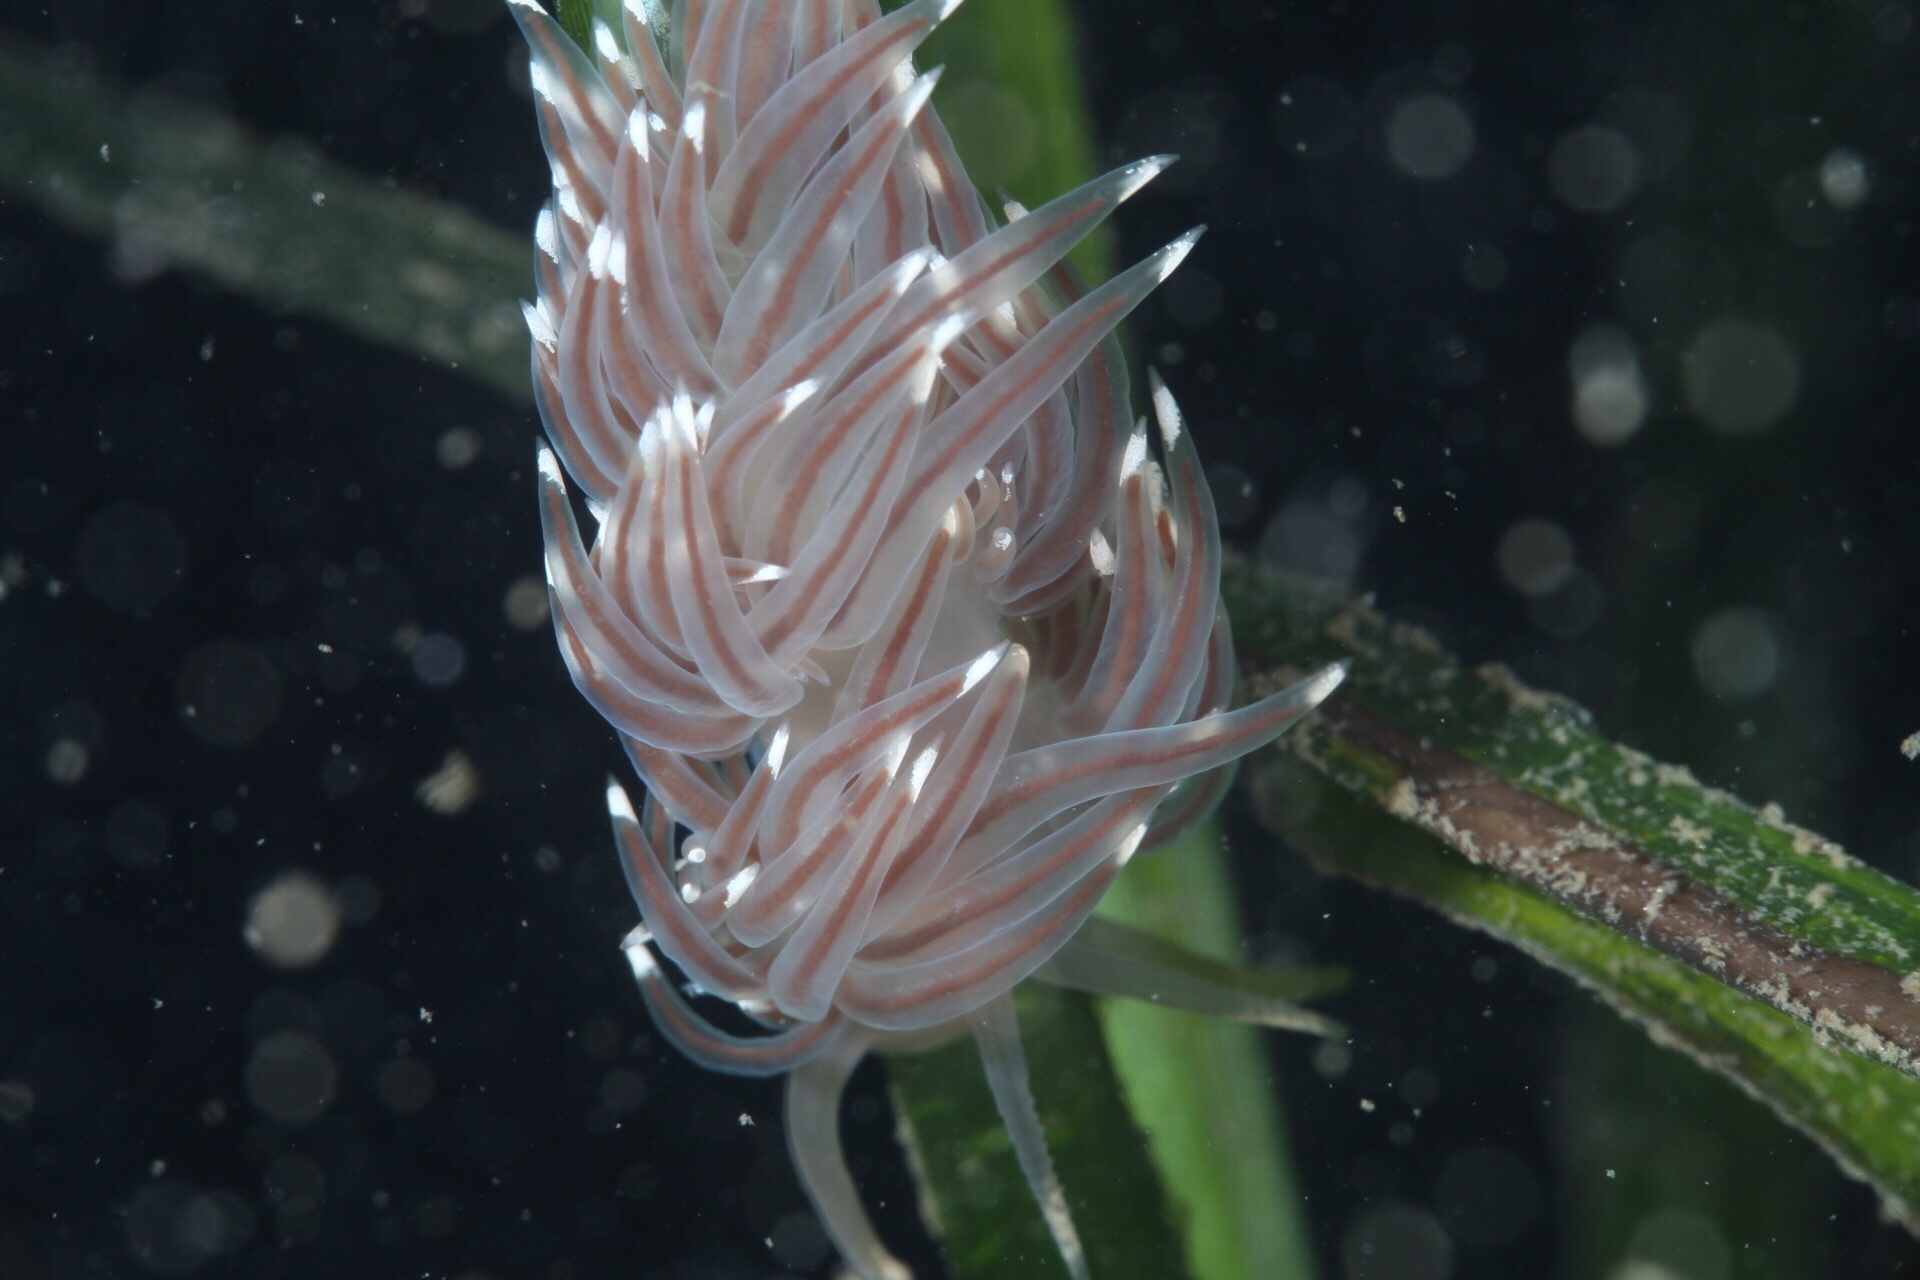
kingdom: Animalia
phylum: Mollusca
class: Gastropoda
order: Nudibranchia
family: Facelinidae
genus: Facelina
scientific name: Facelina bostoniensis
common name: Boston facelina
